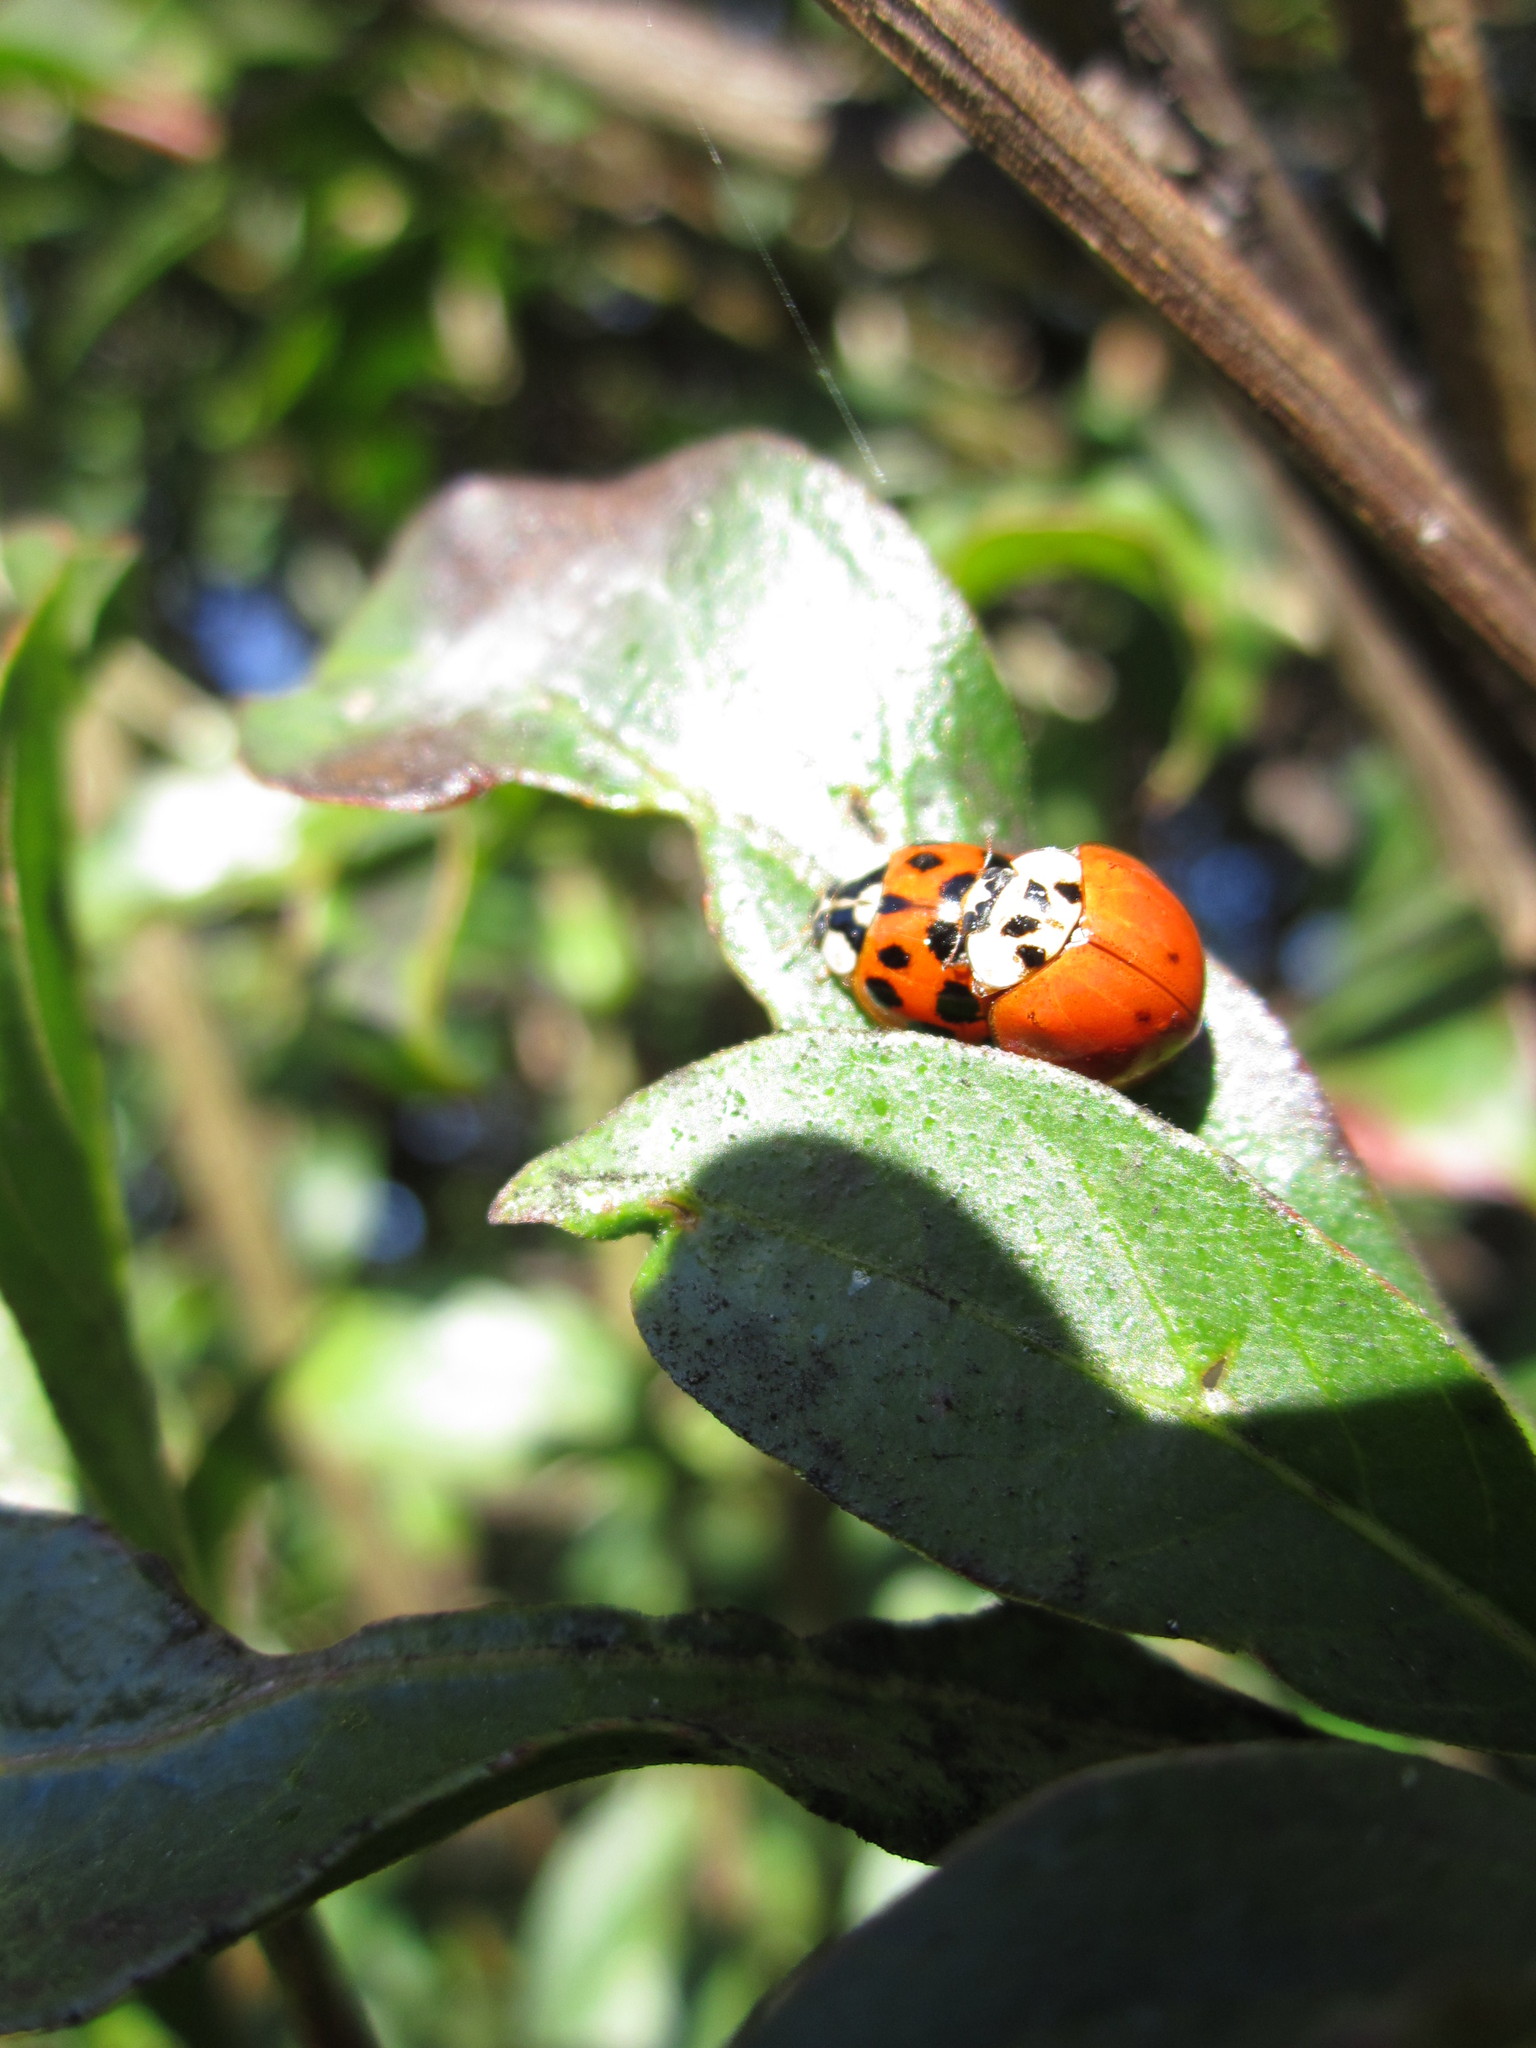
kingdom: Animalia
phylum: Arthropoda
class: Insecta
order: Coleoptera
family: Coccinellidae
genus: Harmonia
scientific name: Harmonia axyridis
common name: Harlequin ladybird
